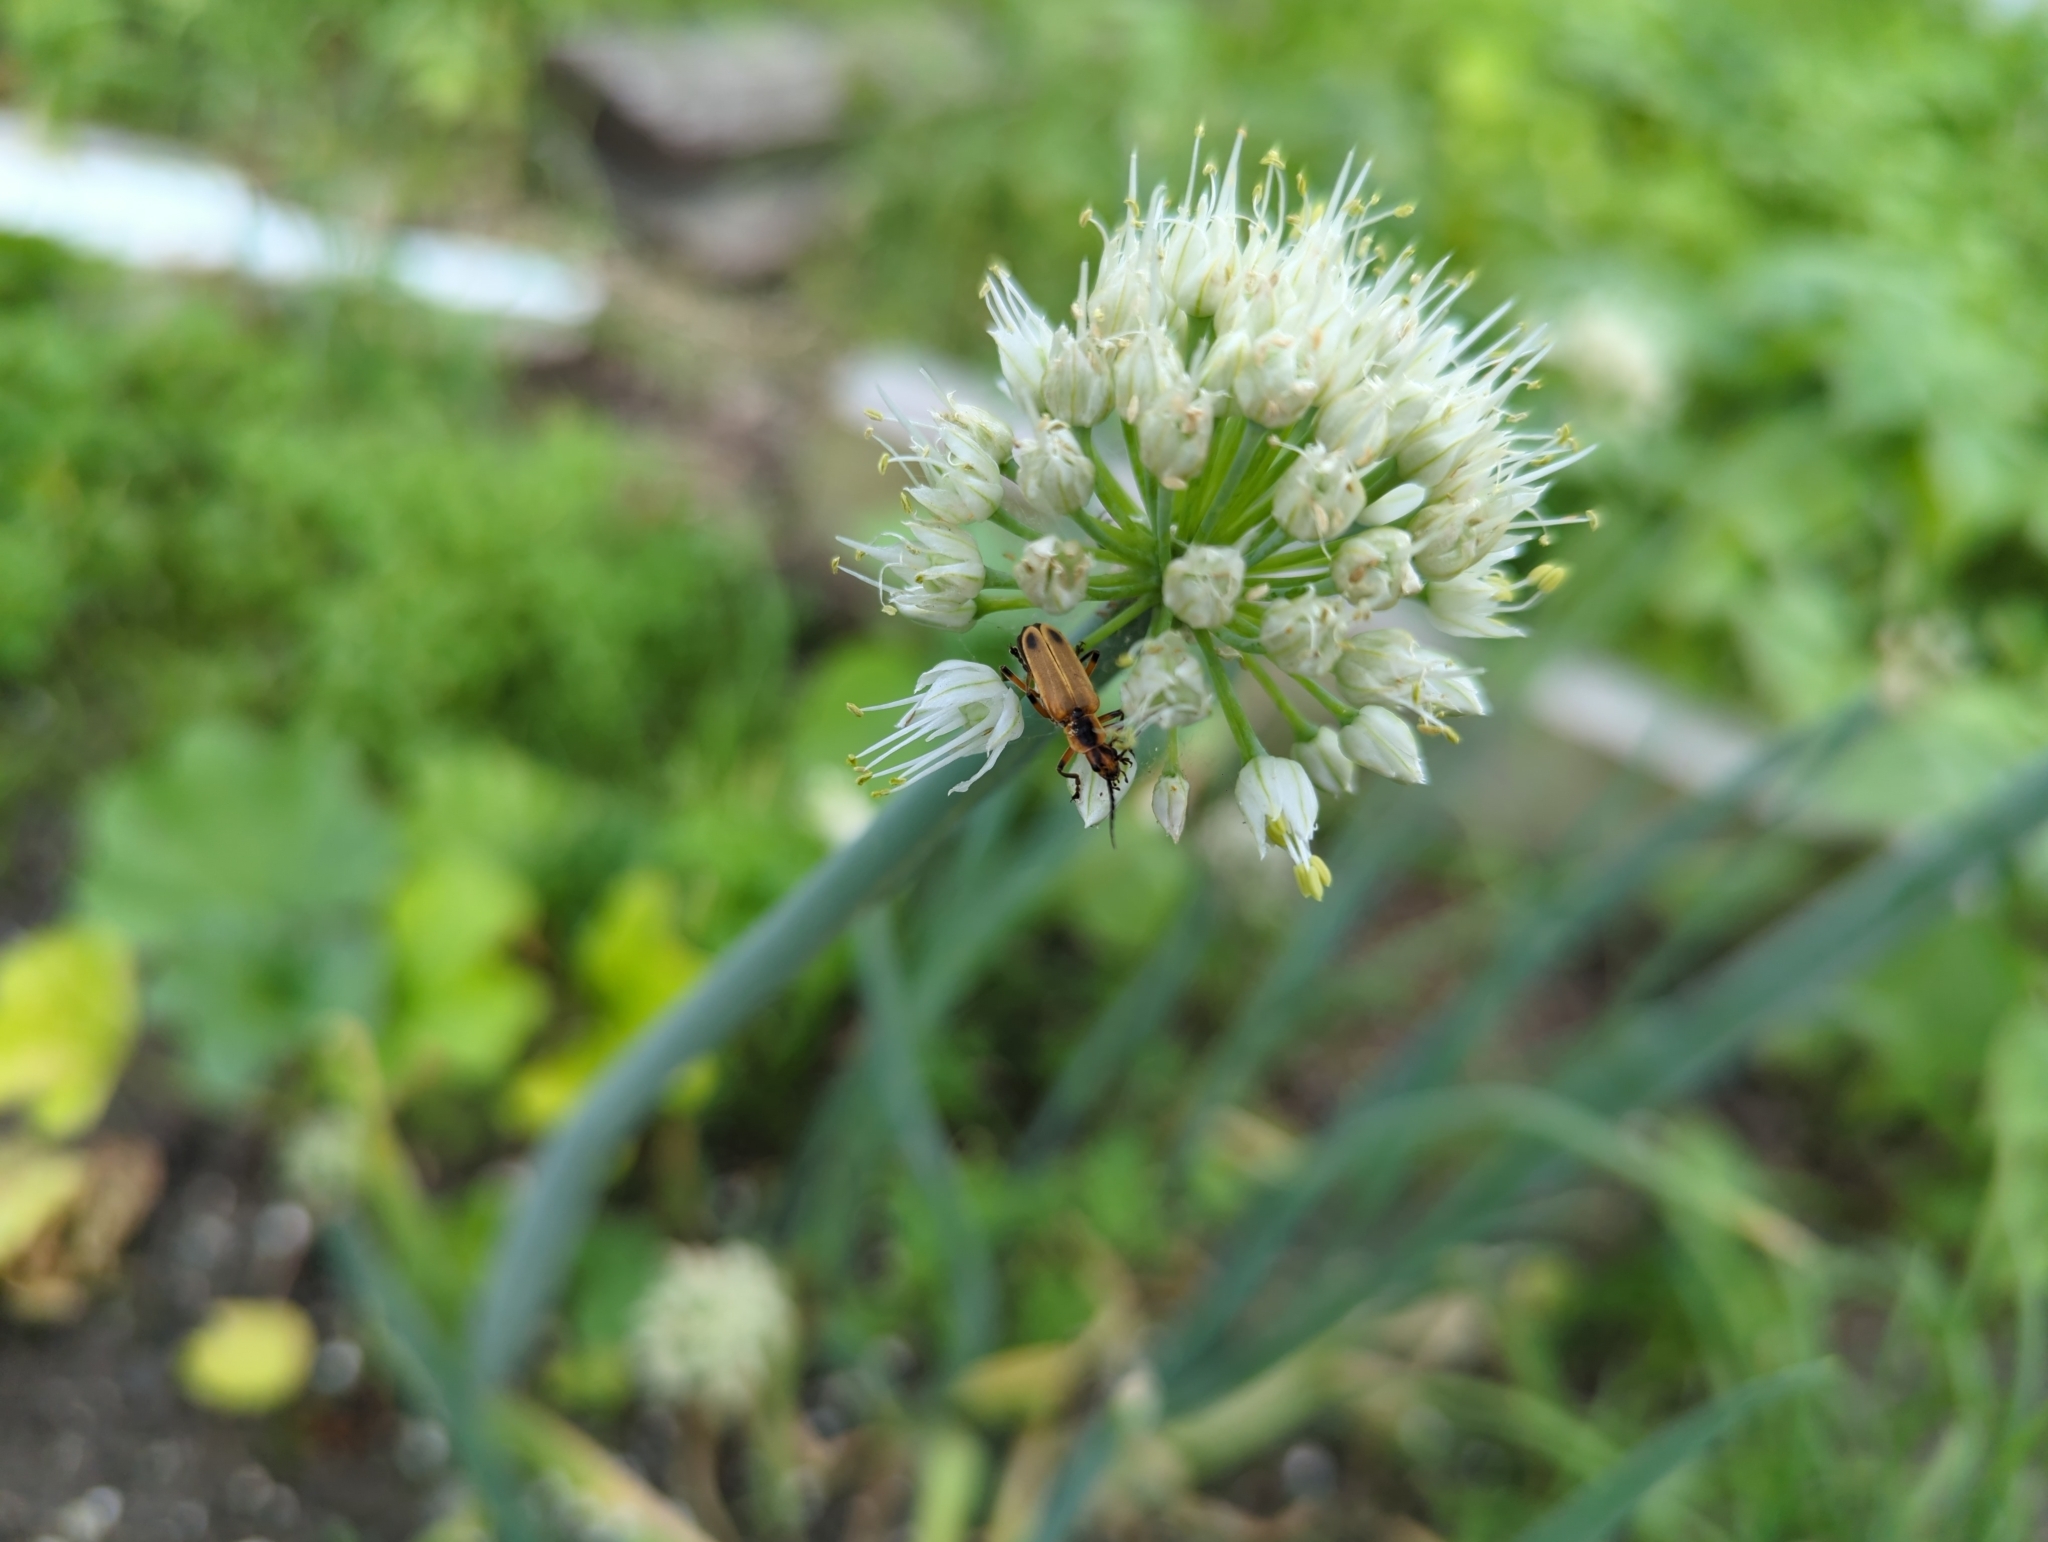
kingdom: Animalia
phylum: Arthropoda
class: Insecta
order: Coleoptera
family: Cantharidae
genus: Chauliognathus
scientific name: Chauliognathus marginatus
